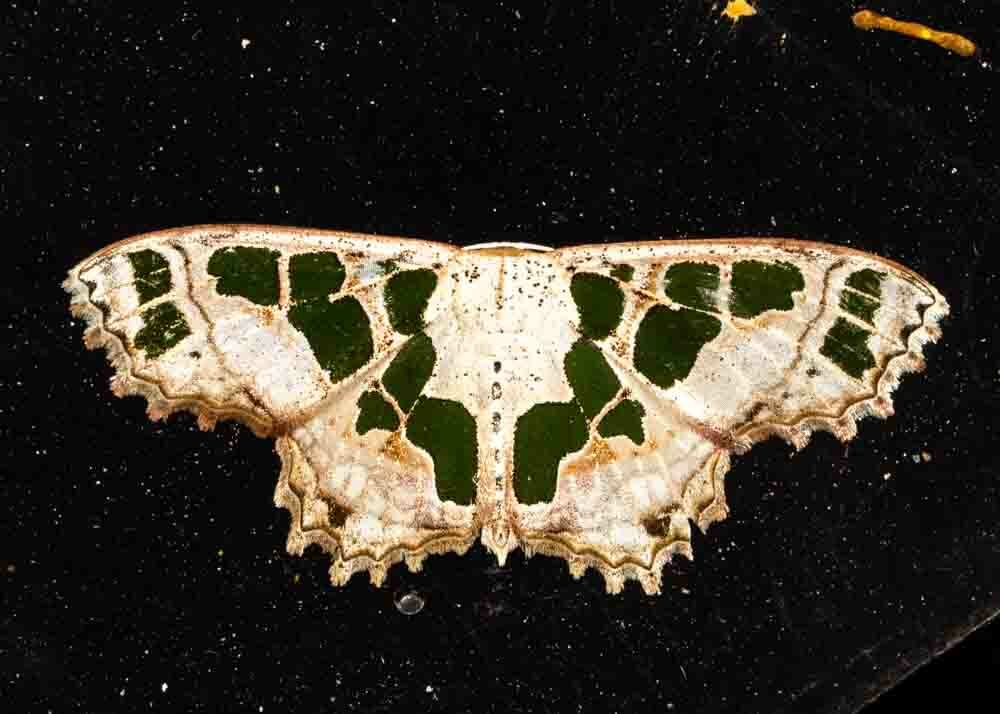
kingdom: Animalia
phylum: Arthropoda
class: Insecta
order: Lepidoptera
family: Geometridae
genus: Scopula
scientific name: Scopula divisaria
